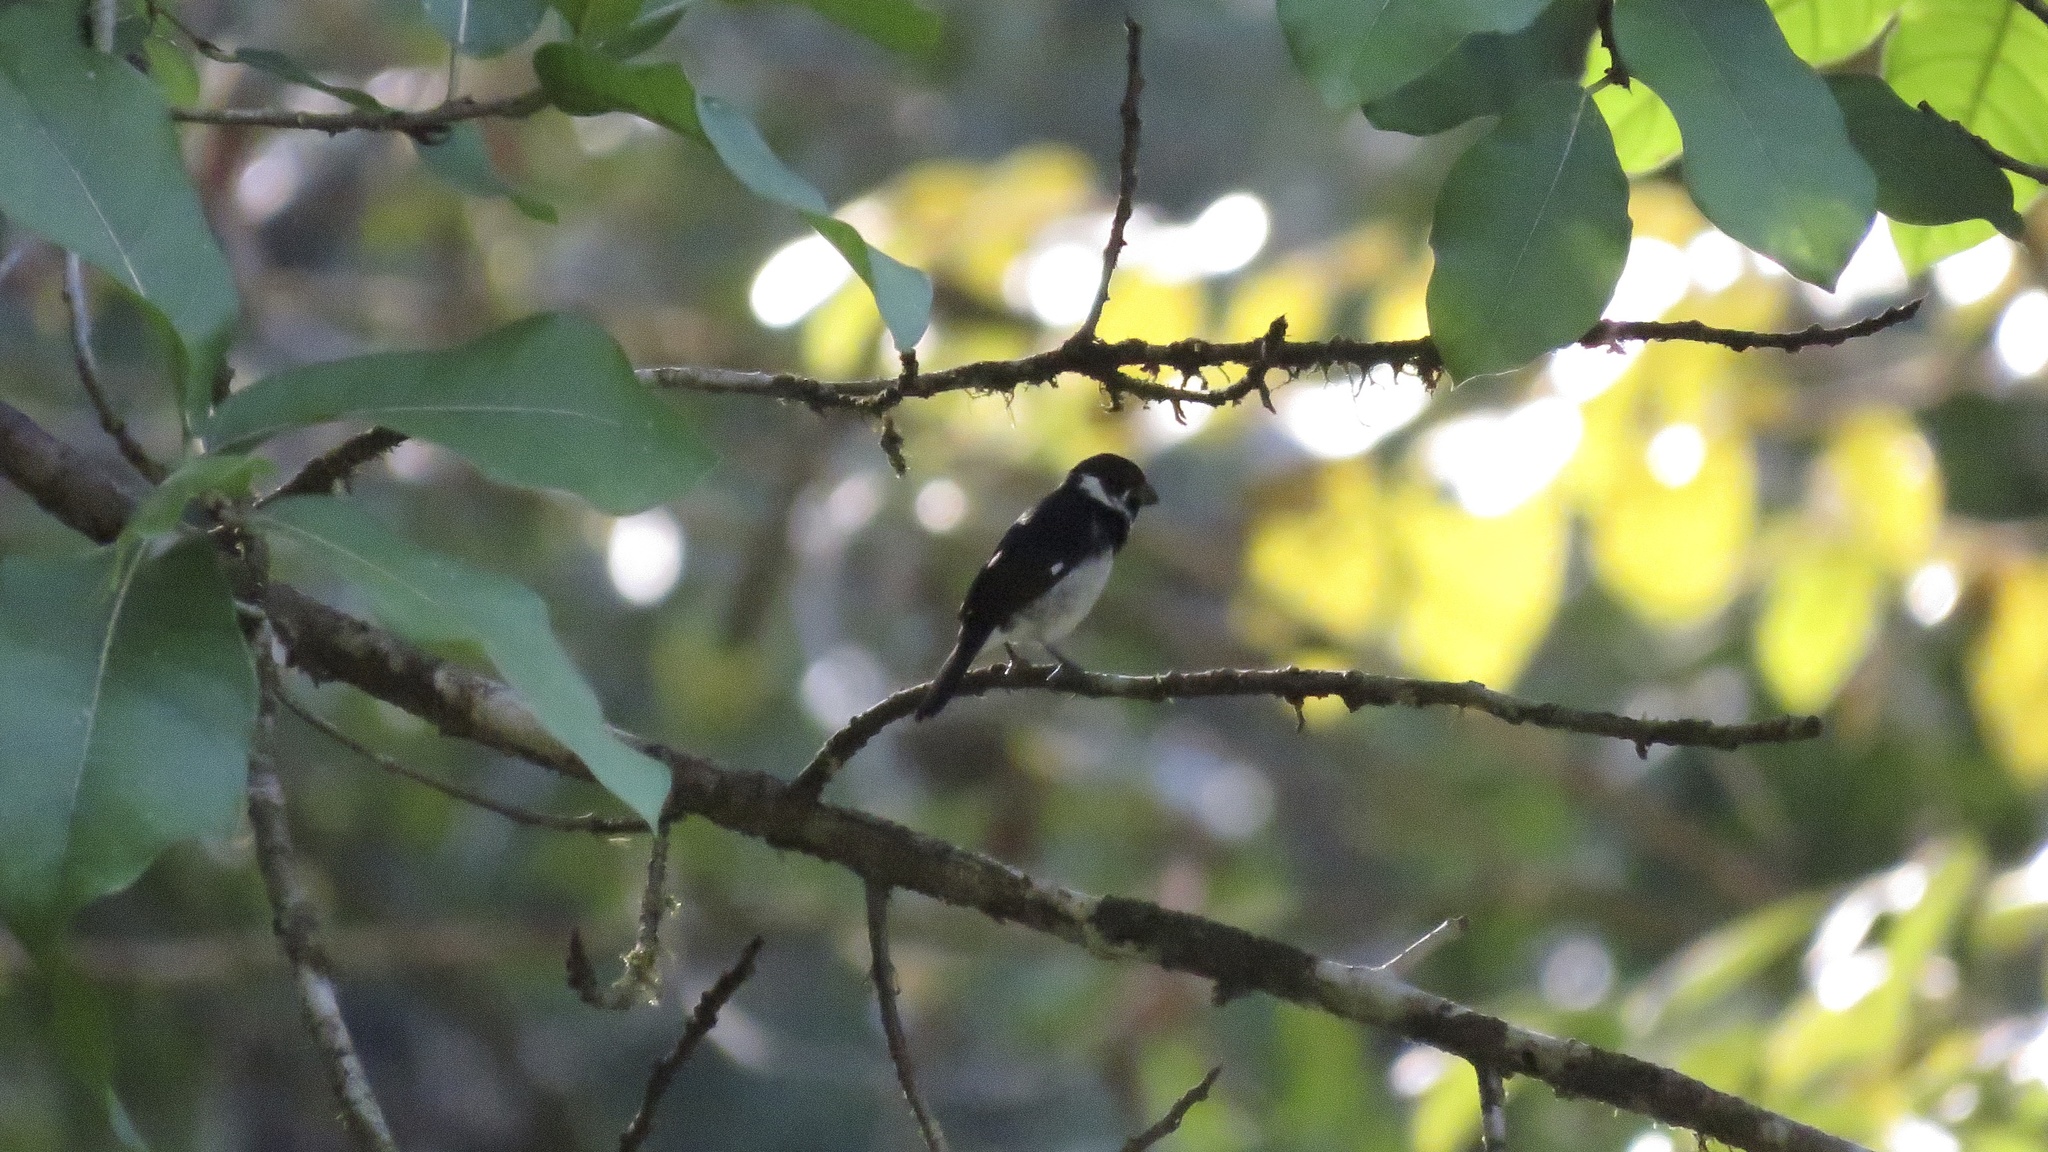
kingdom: Animalia
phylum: Chordata
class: Aves
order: Passeriformes
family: Thraupidae
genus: Sporophila
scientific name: Sporophila corvina
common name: Variable seedeater
